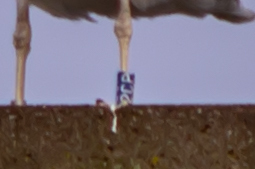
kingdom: Animalia
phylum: Chordata
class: Aves
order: Charadriiformes
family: Laridae
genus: Larus
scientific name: Larus marinus
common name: Great black-backed gull
